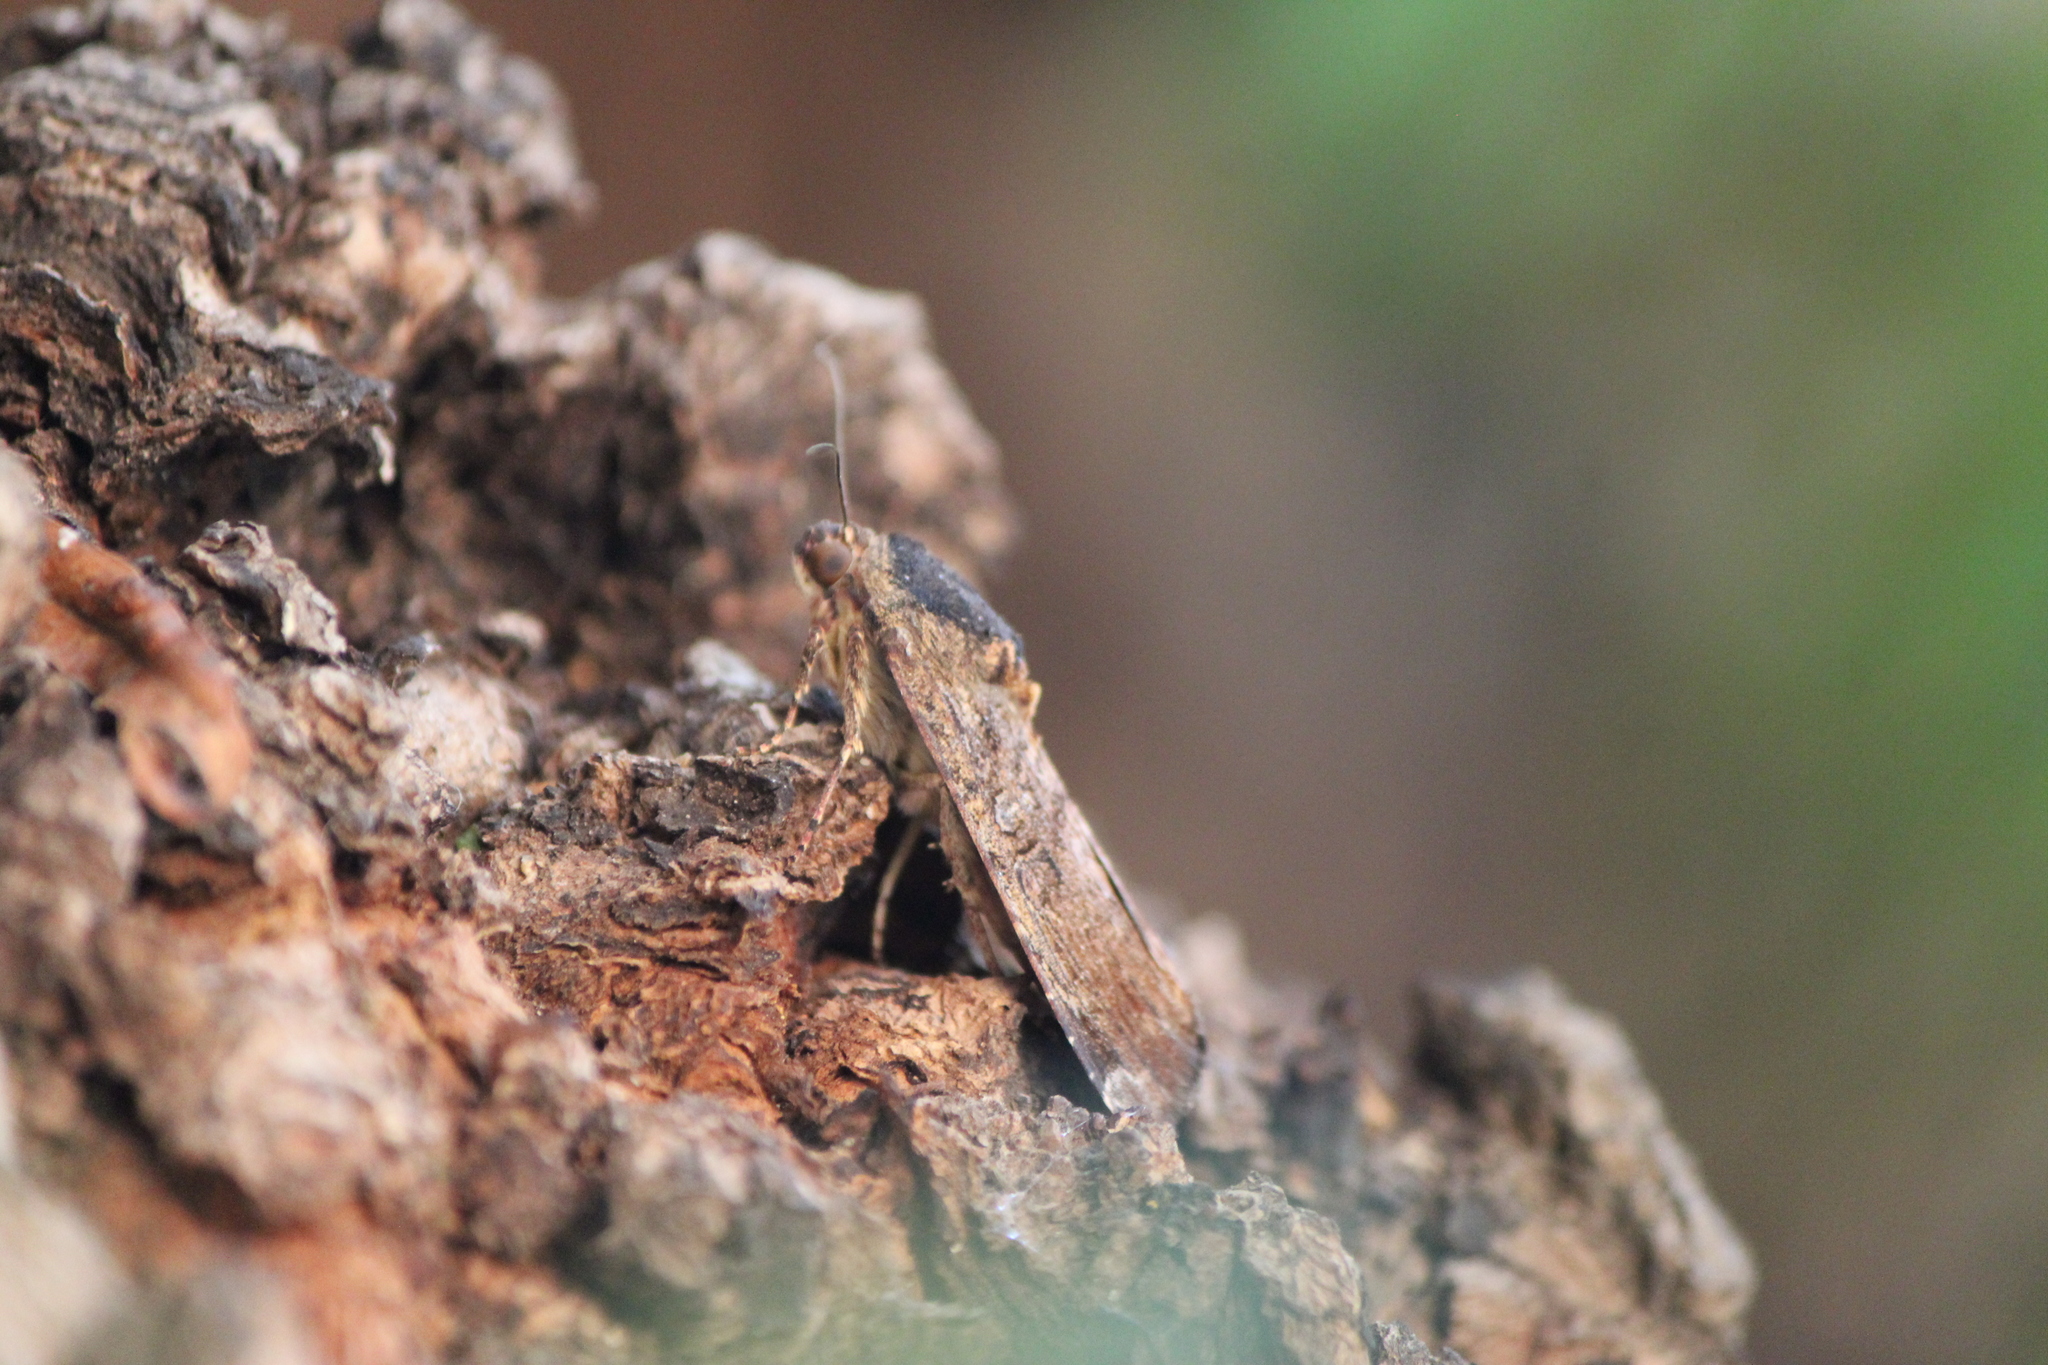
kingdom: Animalia
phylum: Arthropoda
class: Insecta
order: Lepidoptera
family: Noctuidae
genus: Magusa
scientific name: Magusa divaricata
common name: Orb narrow-winged moth
